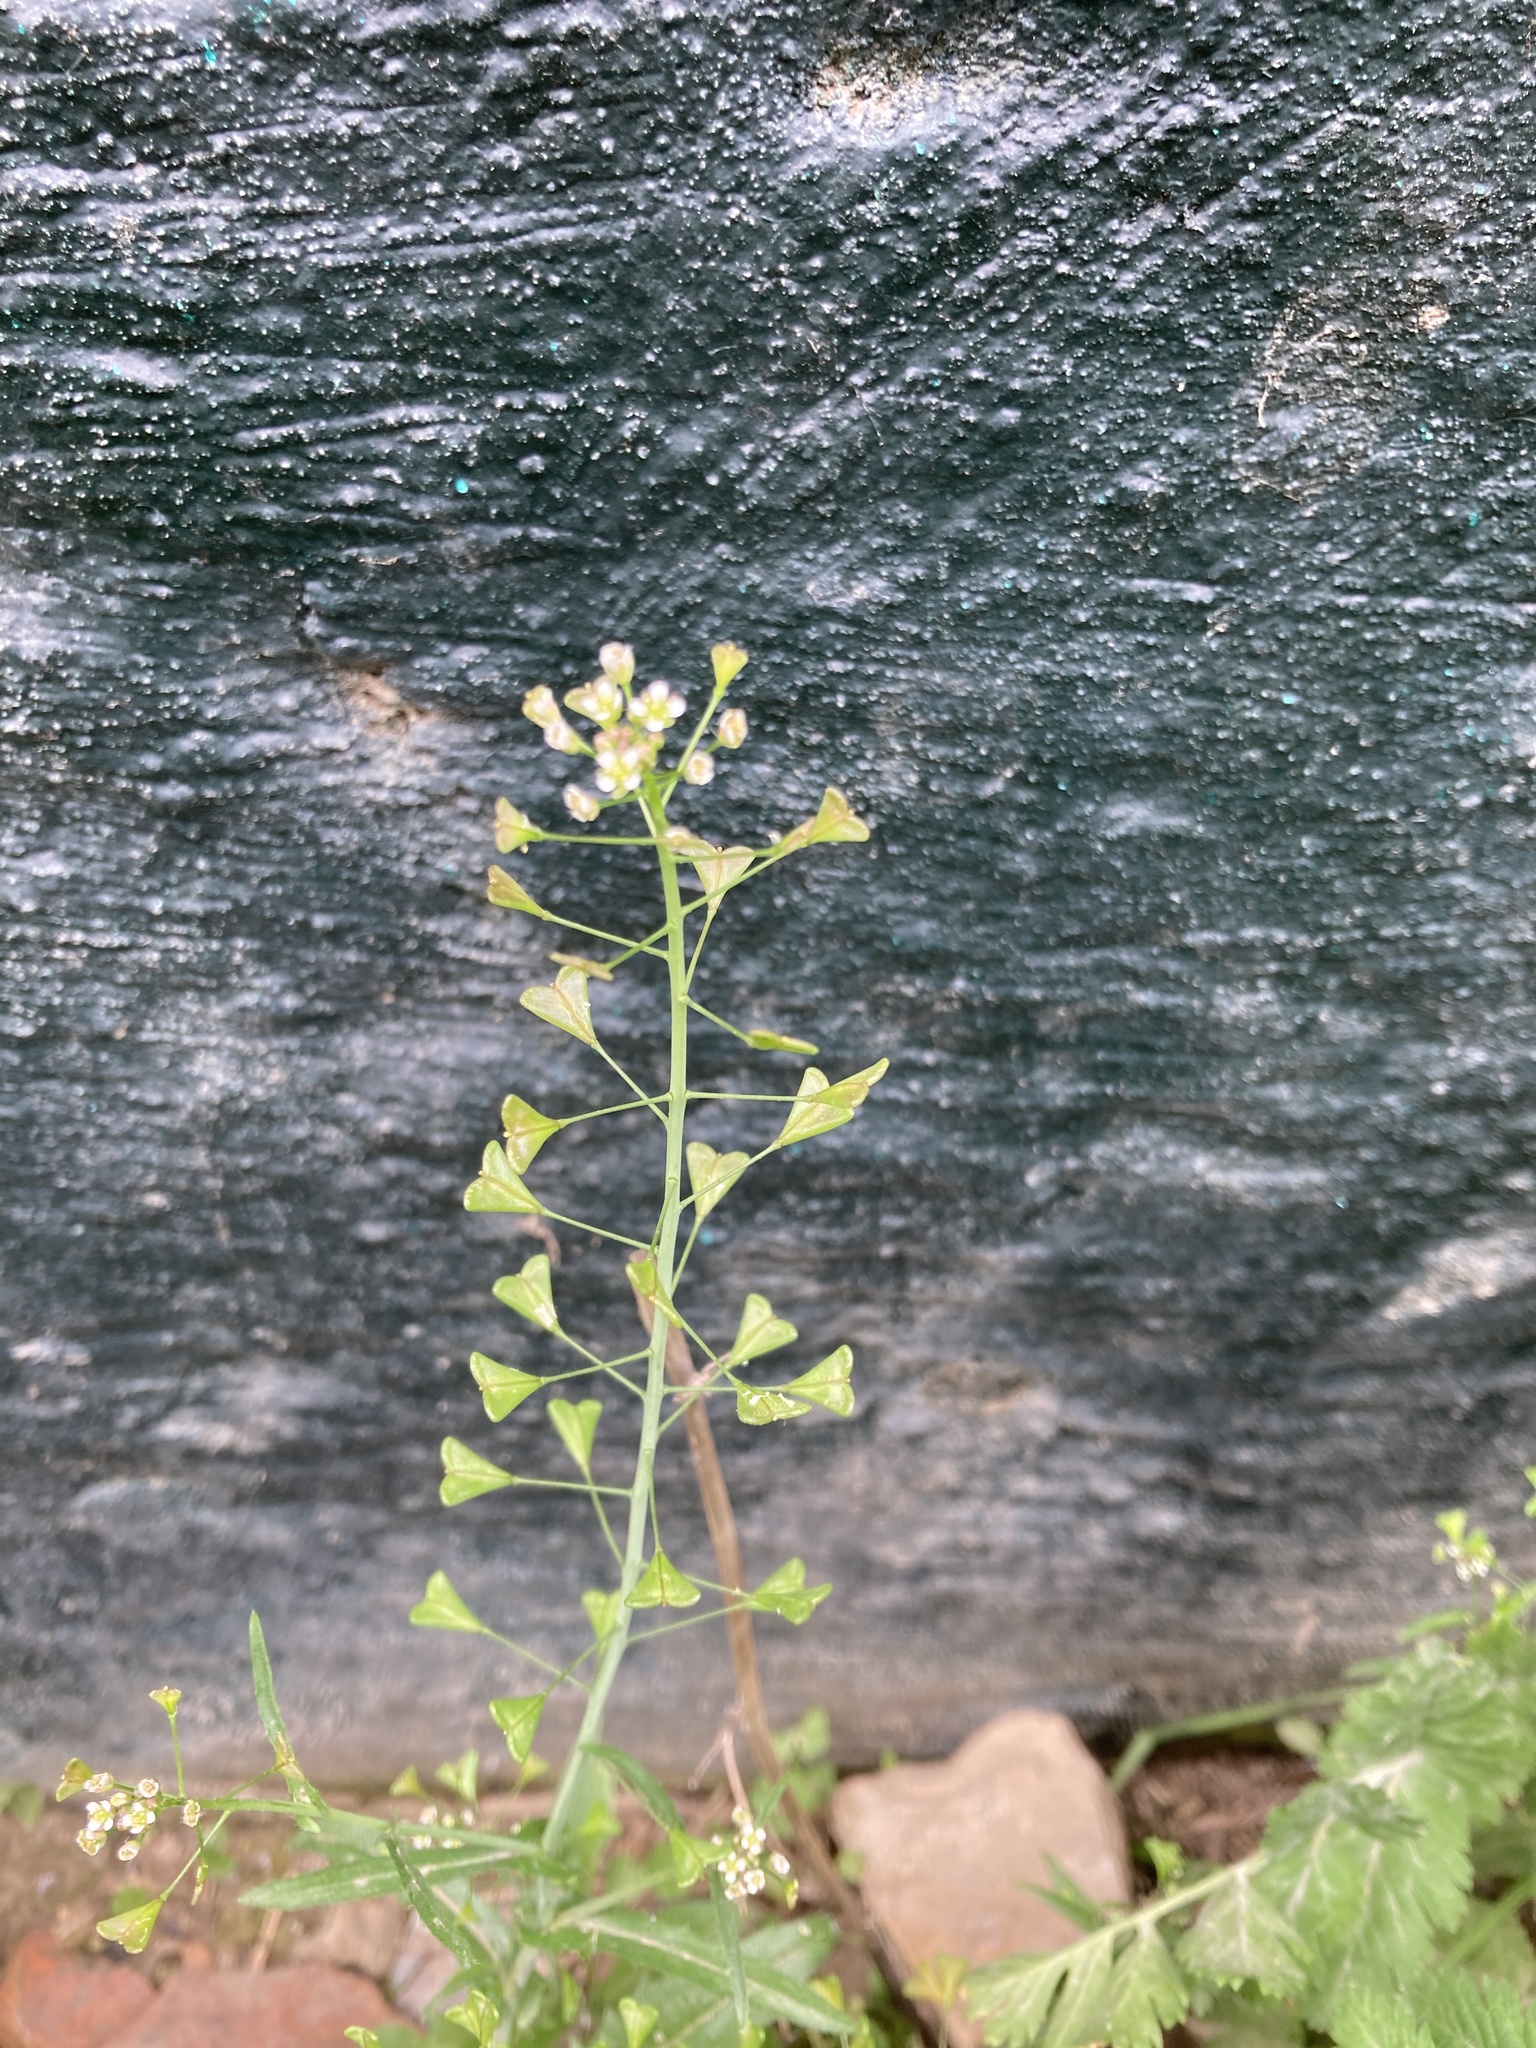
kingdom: Plantae
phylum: Tracheophyta
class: Magnoliopsida
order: Brassicales
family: Brassicaceae
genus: Capsella
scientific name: Capsella bursa-pastoris
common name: Shepherd's purse
